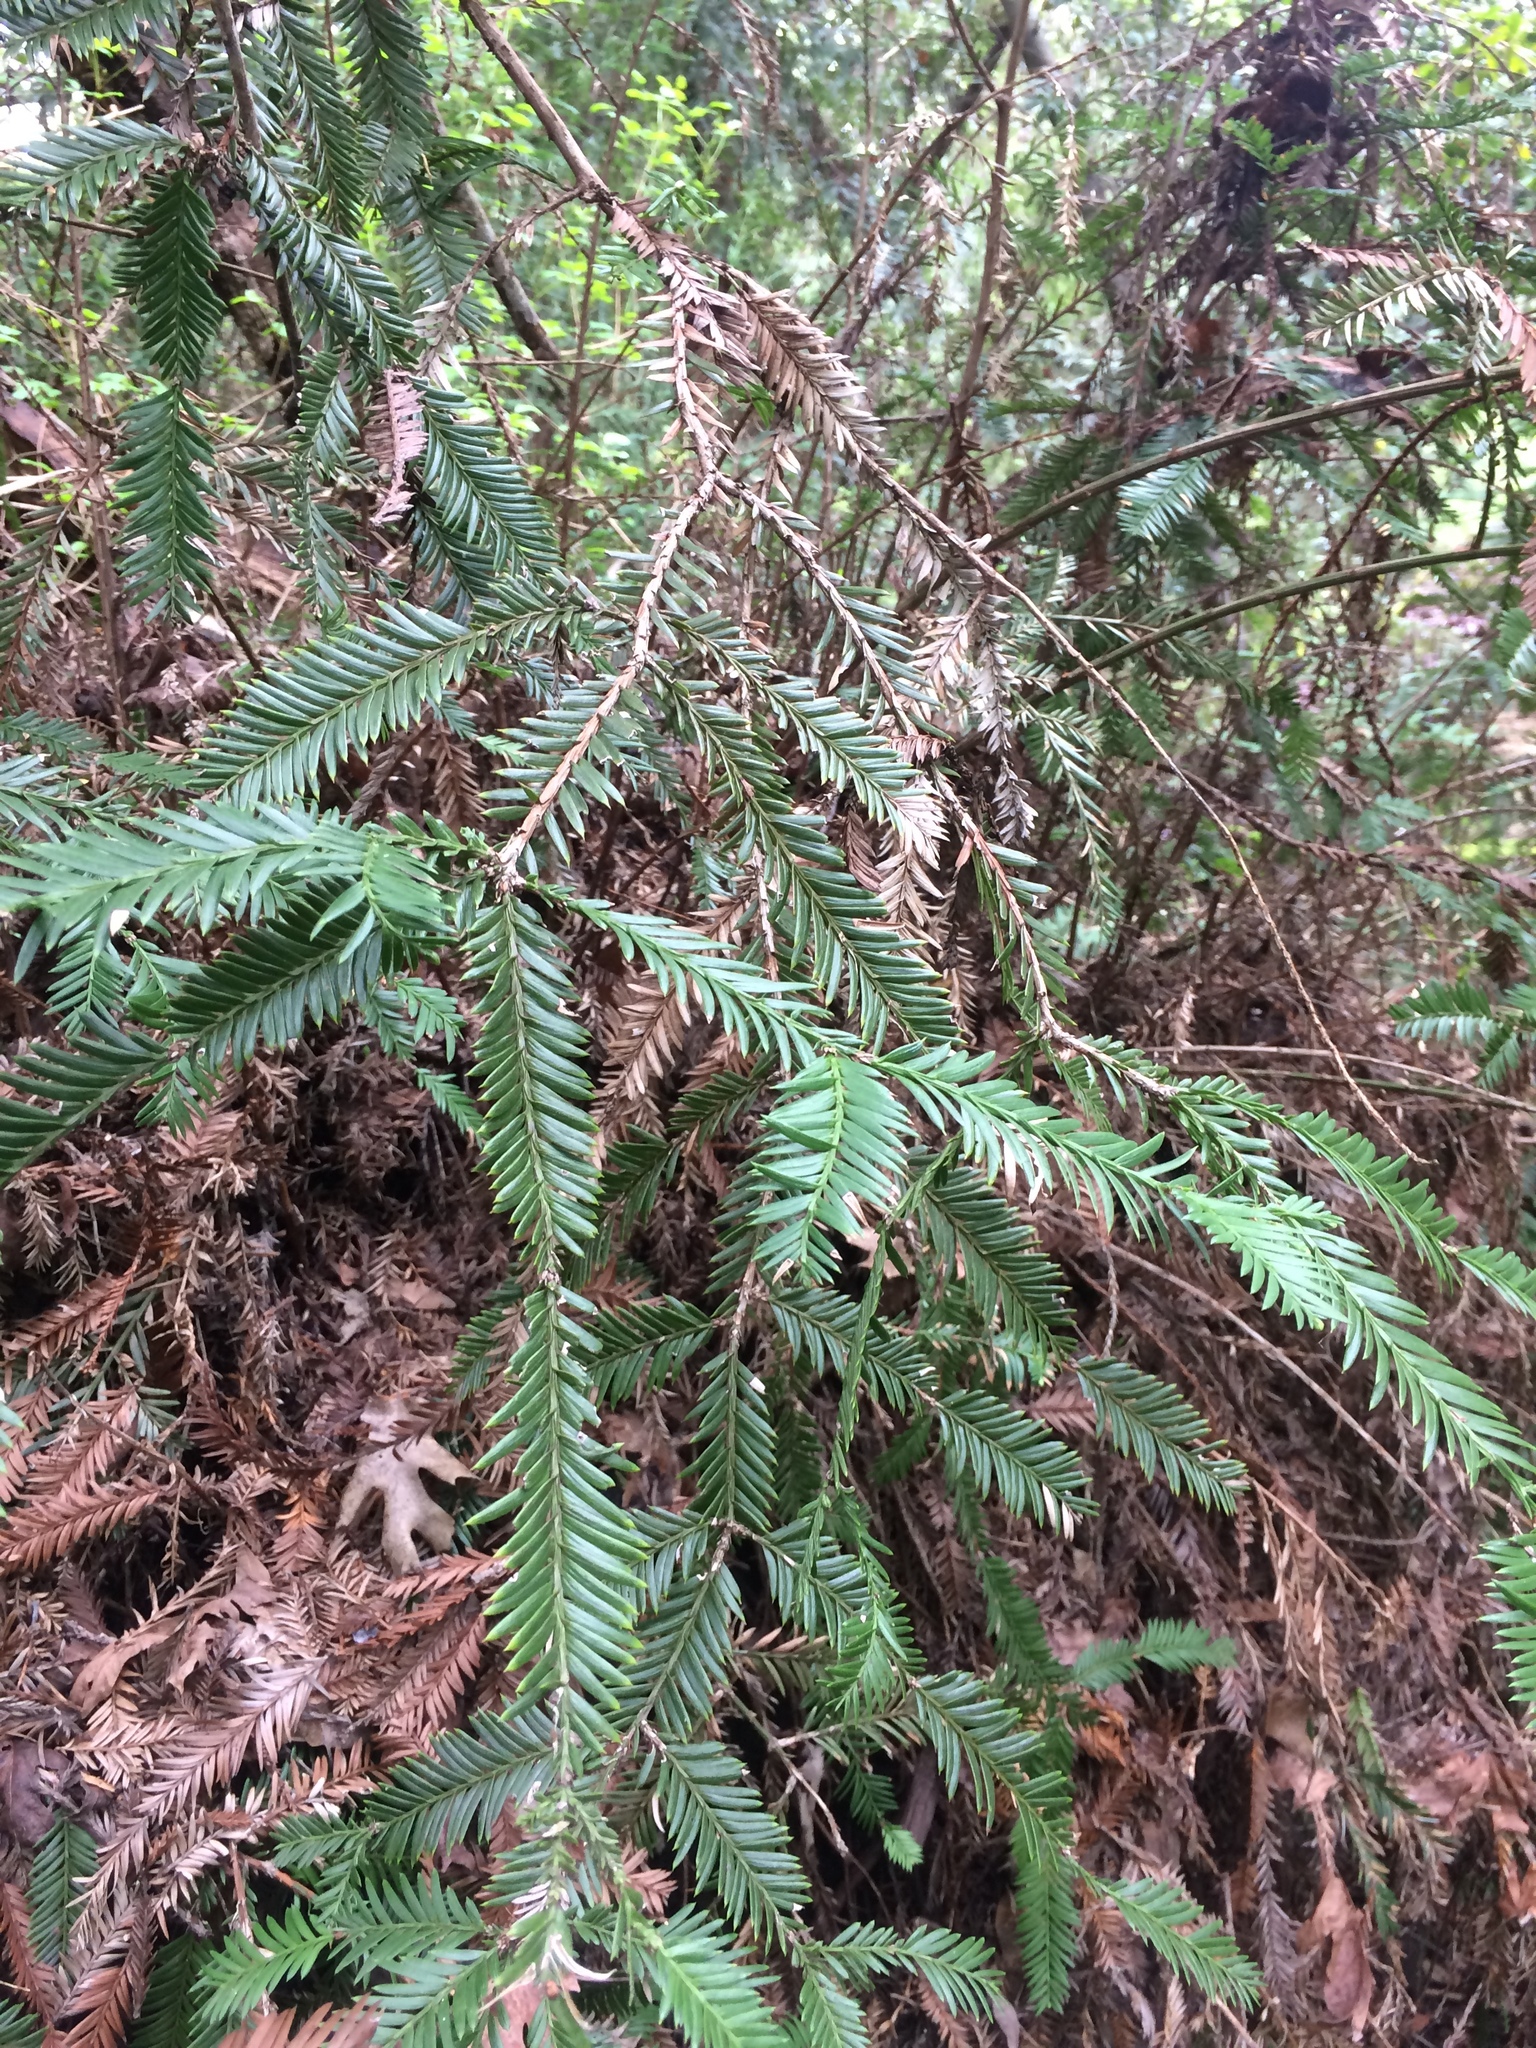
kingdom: Plantae
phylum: Tracheophyta
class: Pinopsida
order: Pinales
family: Cupressaceae
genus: Sequoia
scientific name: Sequoia sempervirens
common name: Coast redwood
